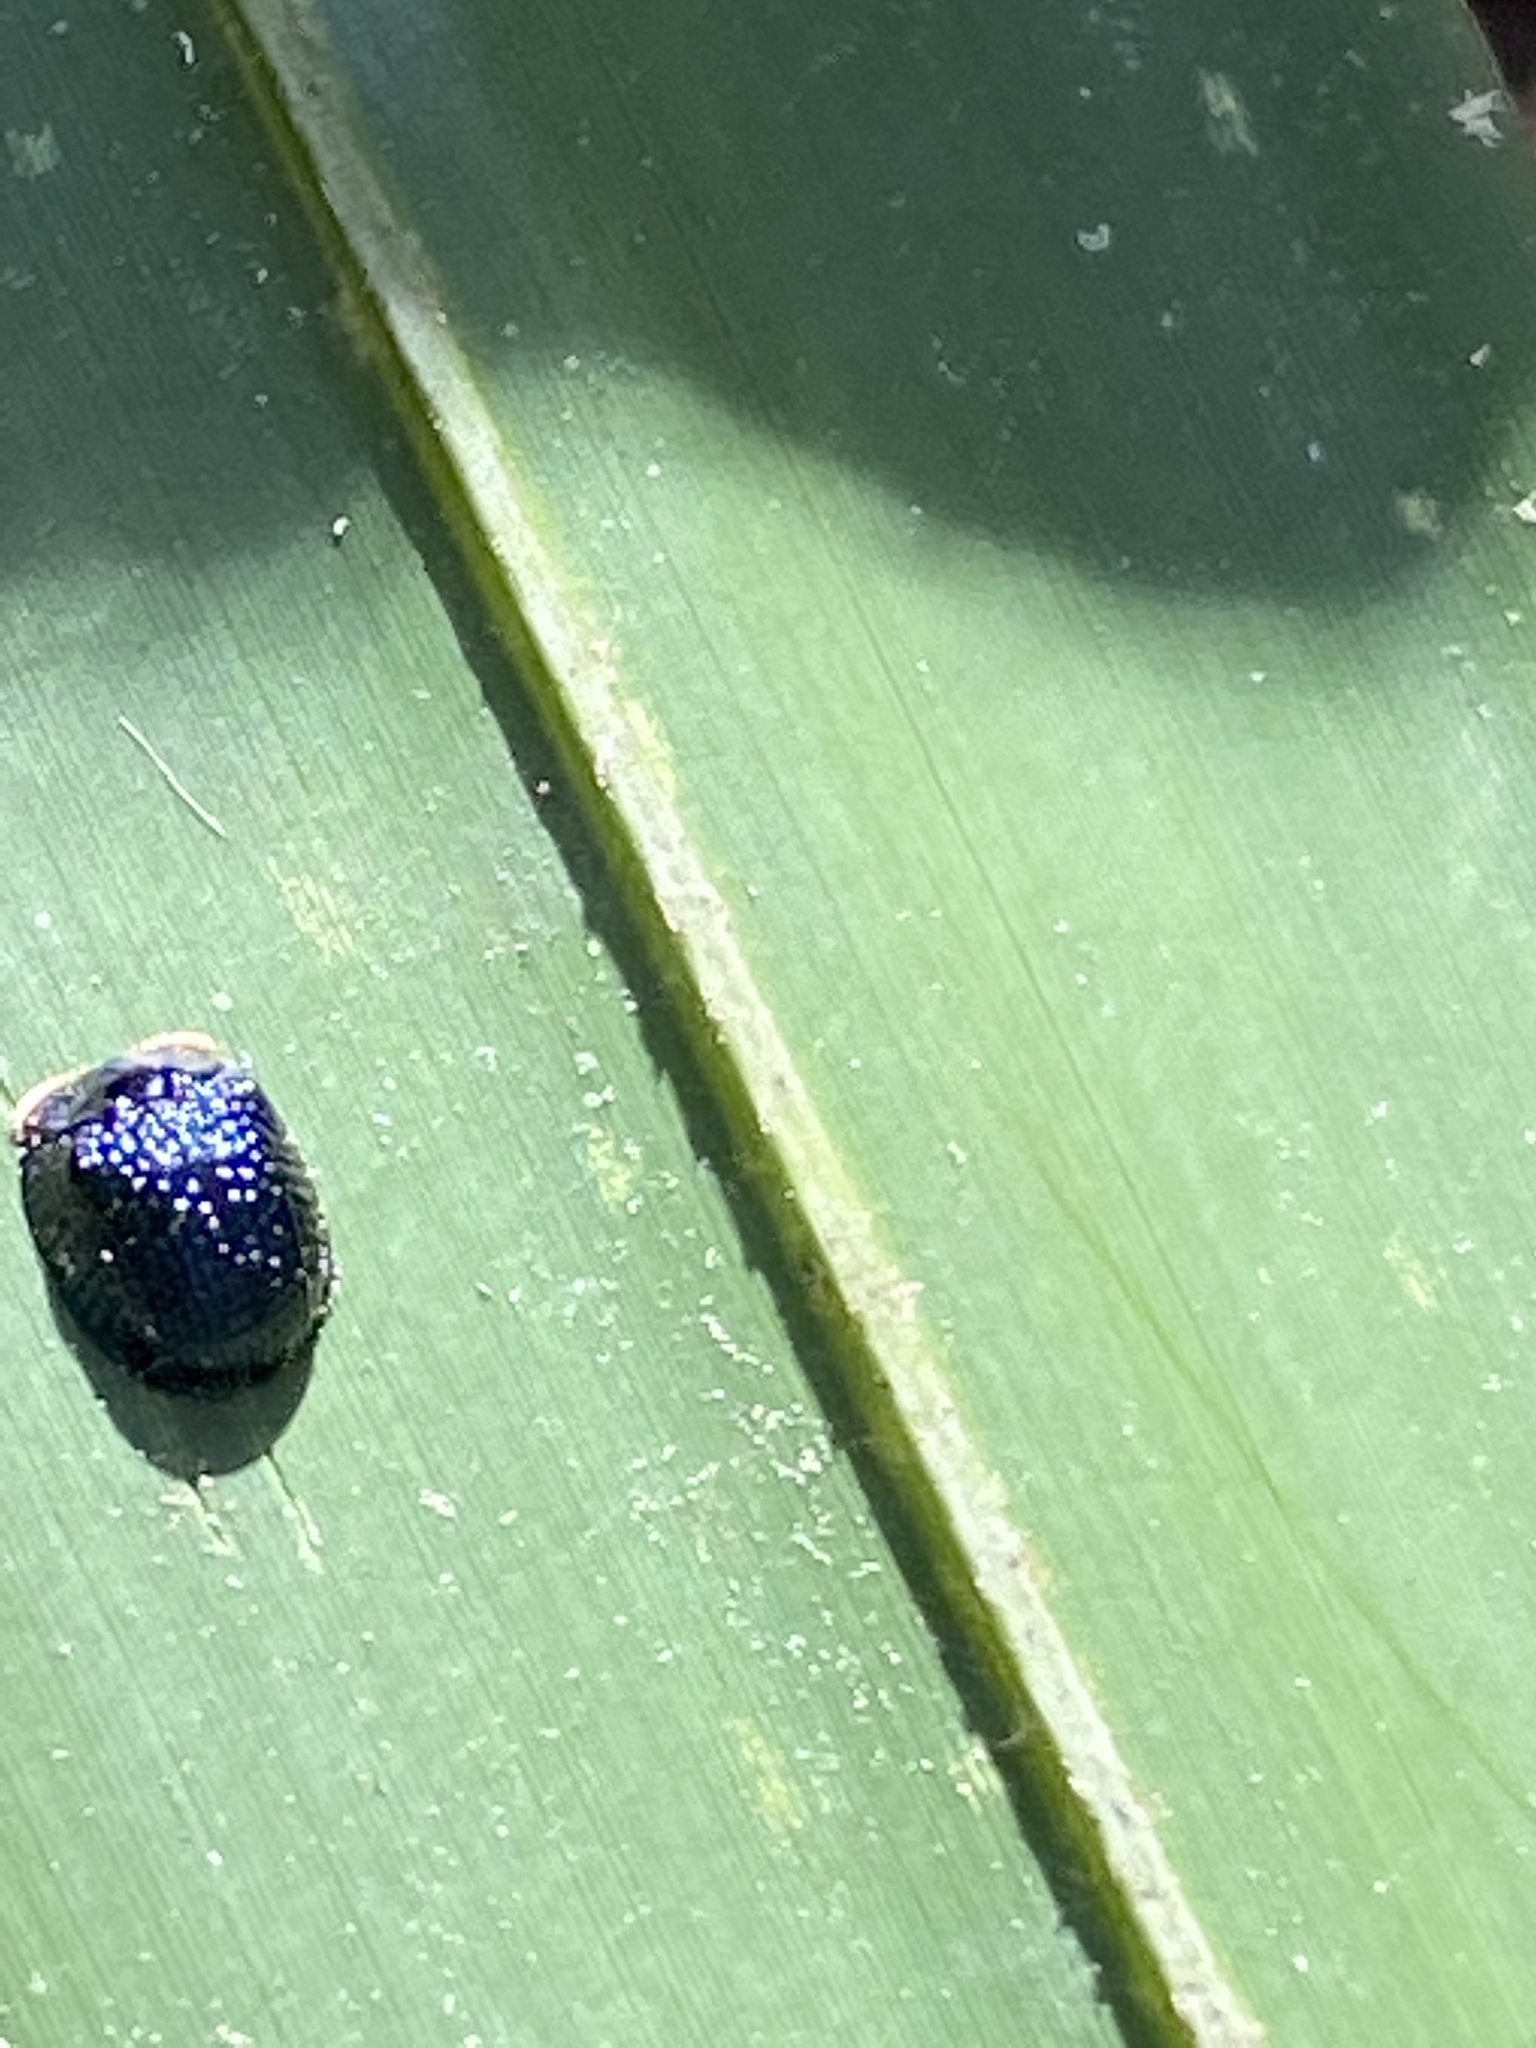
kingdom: Animalia
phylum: Arthropoda
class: Insecta
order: Coleoptera
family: Chrysomelidae
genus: Hemisphaerota
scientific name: Hemisphaerota cyanea
